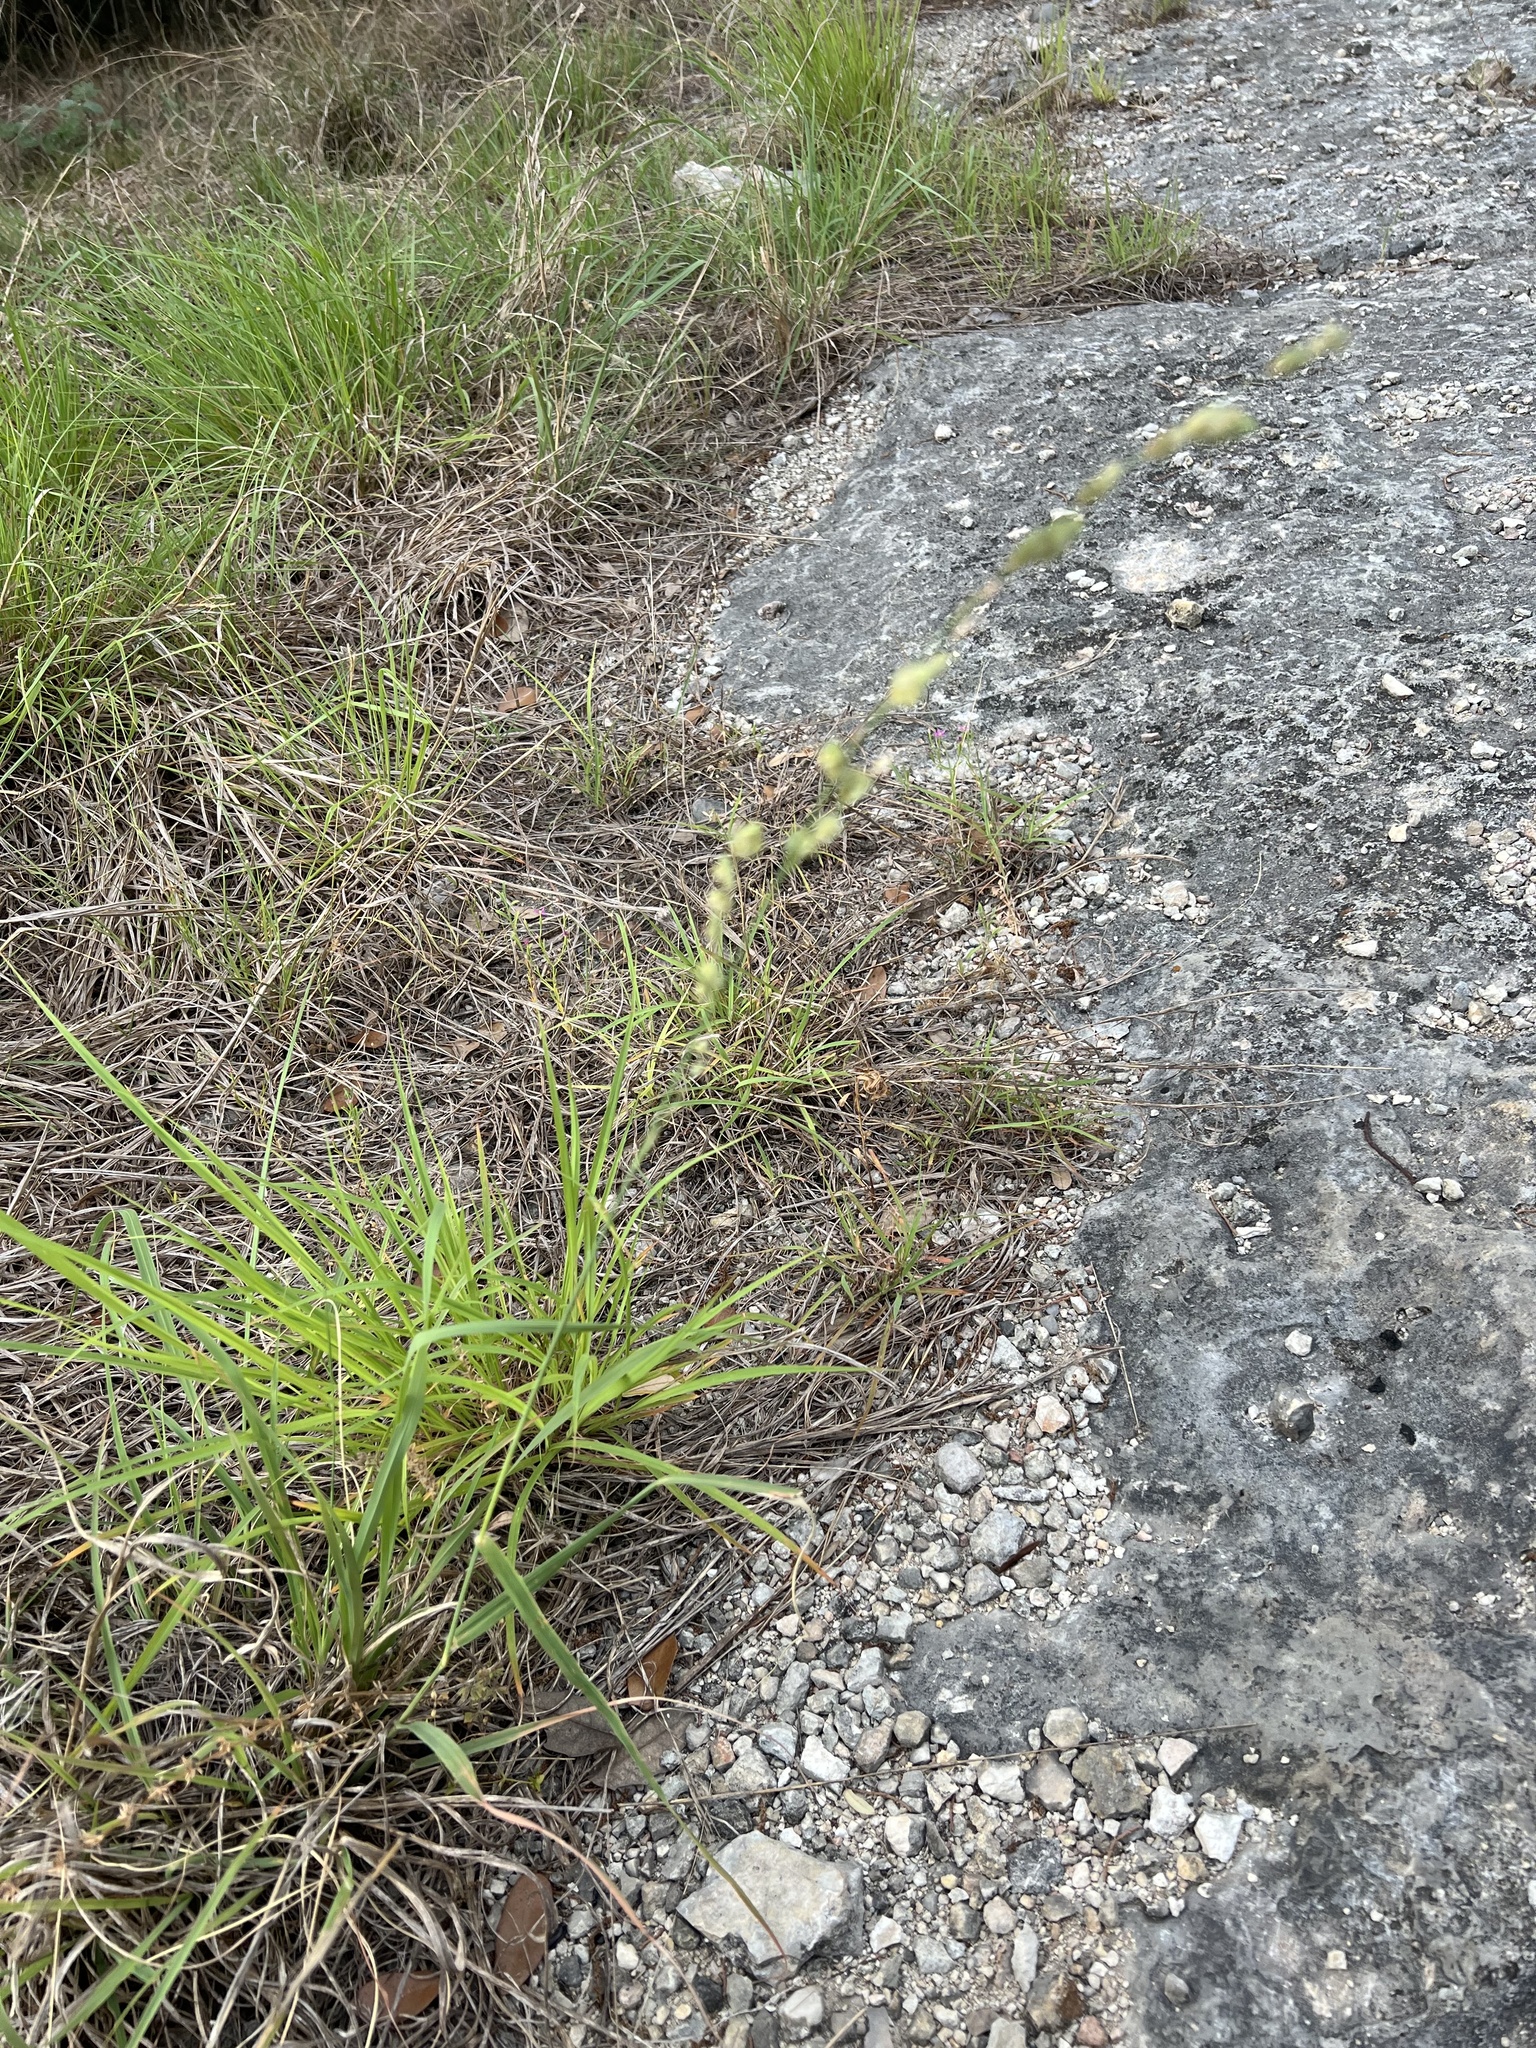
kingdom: Plantae
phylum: Tracheophyta
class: Liliopsida
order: Poales
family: Poaceae
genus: Eragrostis
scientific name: Eragrostis superba
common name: Wilman lovegrass
